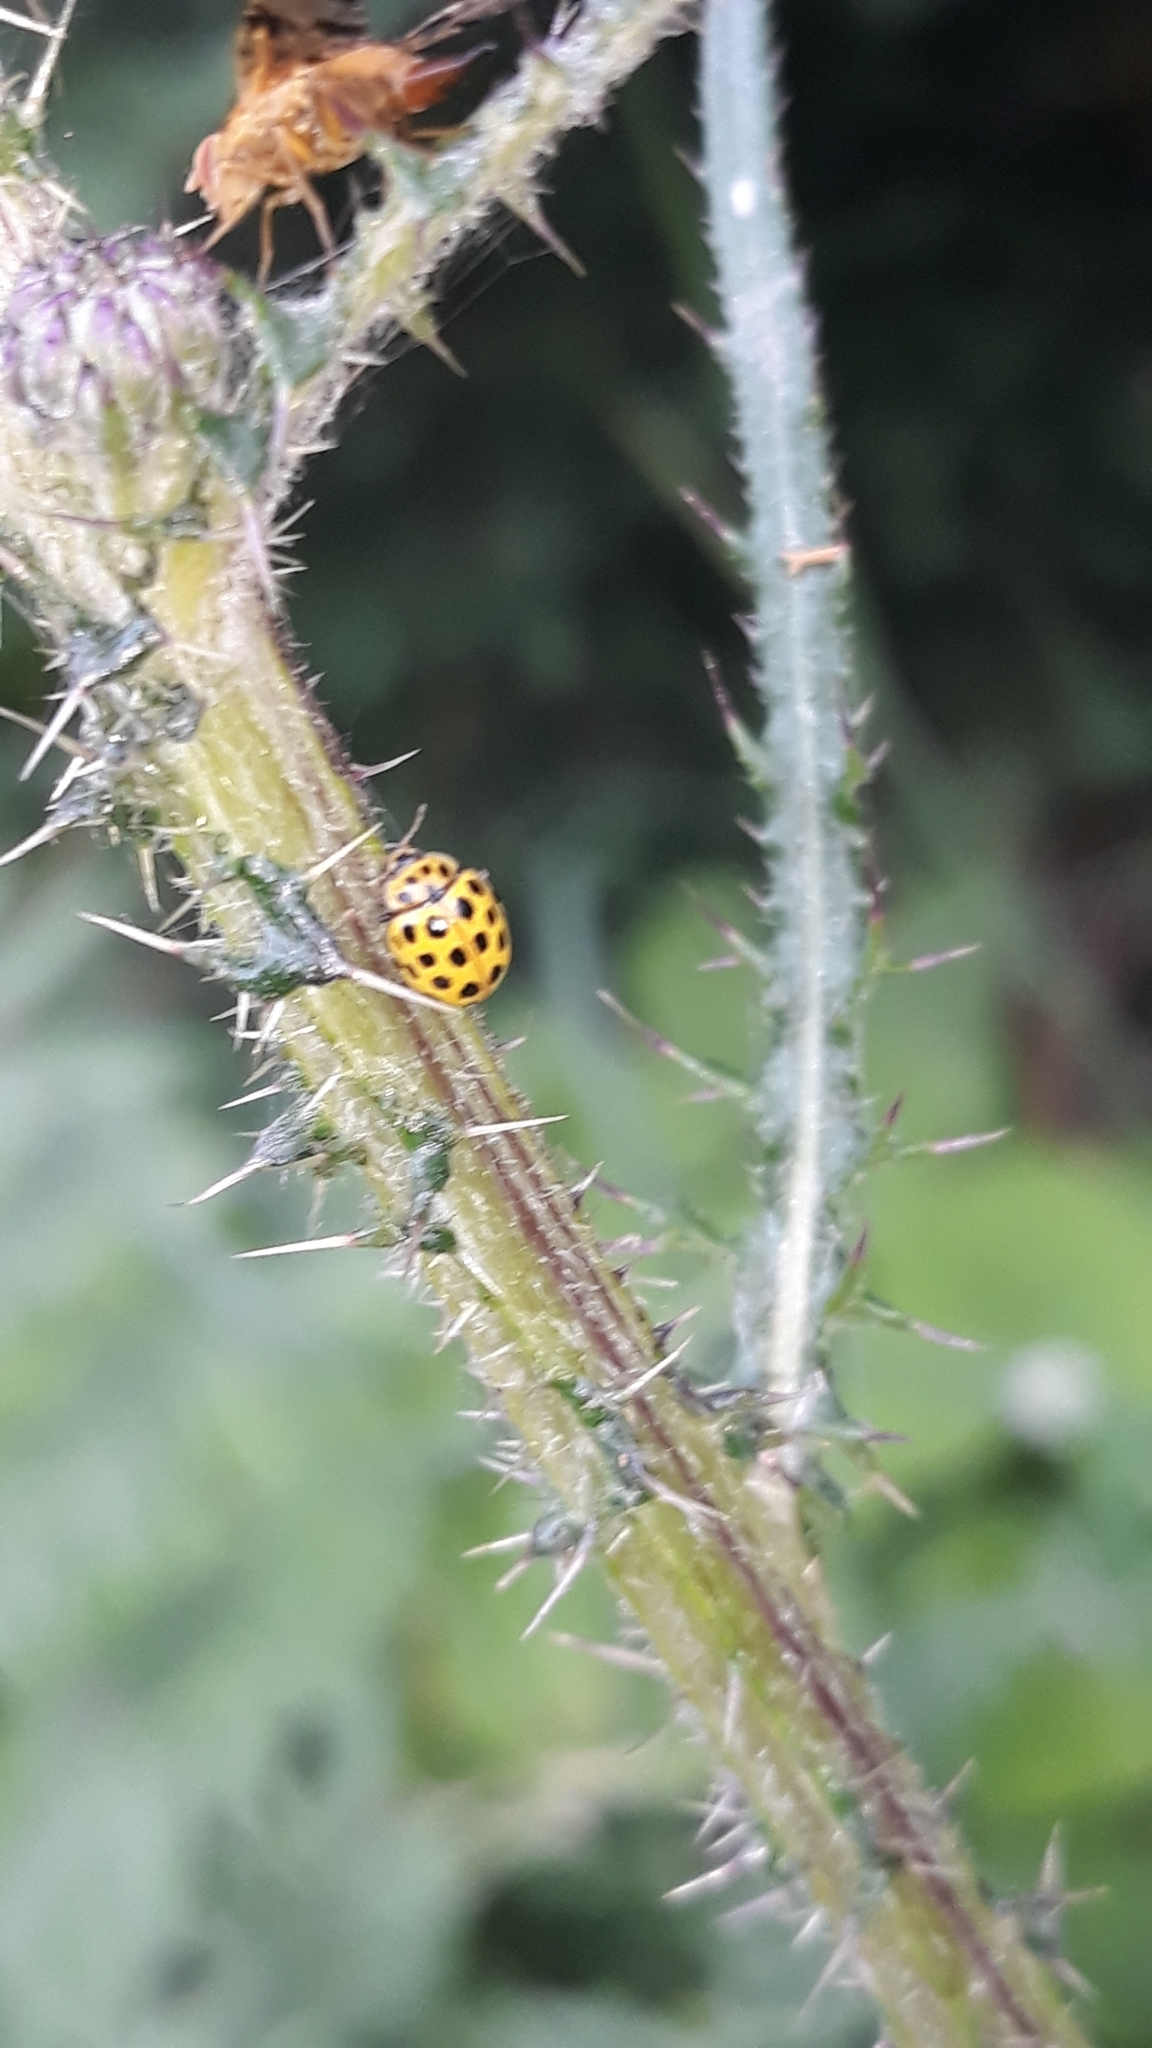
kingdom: Animalia
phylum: Arthropoda
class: Insecta
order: Coleoptera
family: Coccinellidae
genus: Psyllobora
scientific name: Psyllobora vigintiduopunctata
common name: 22-spot ladybird
